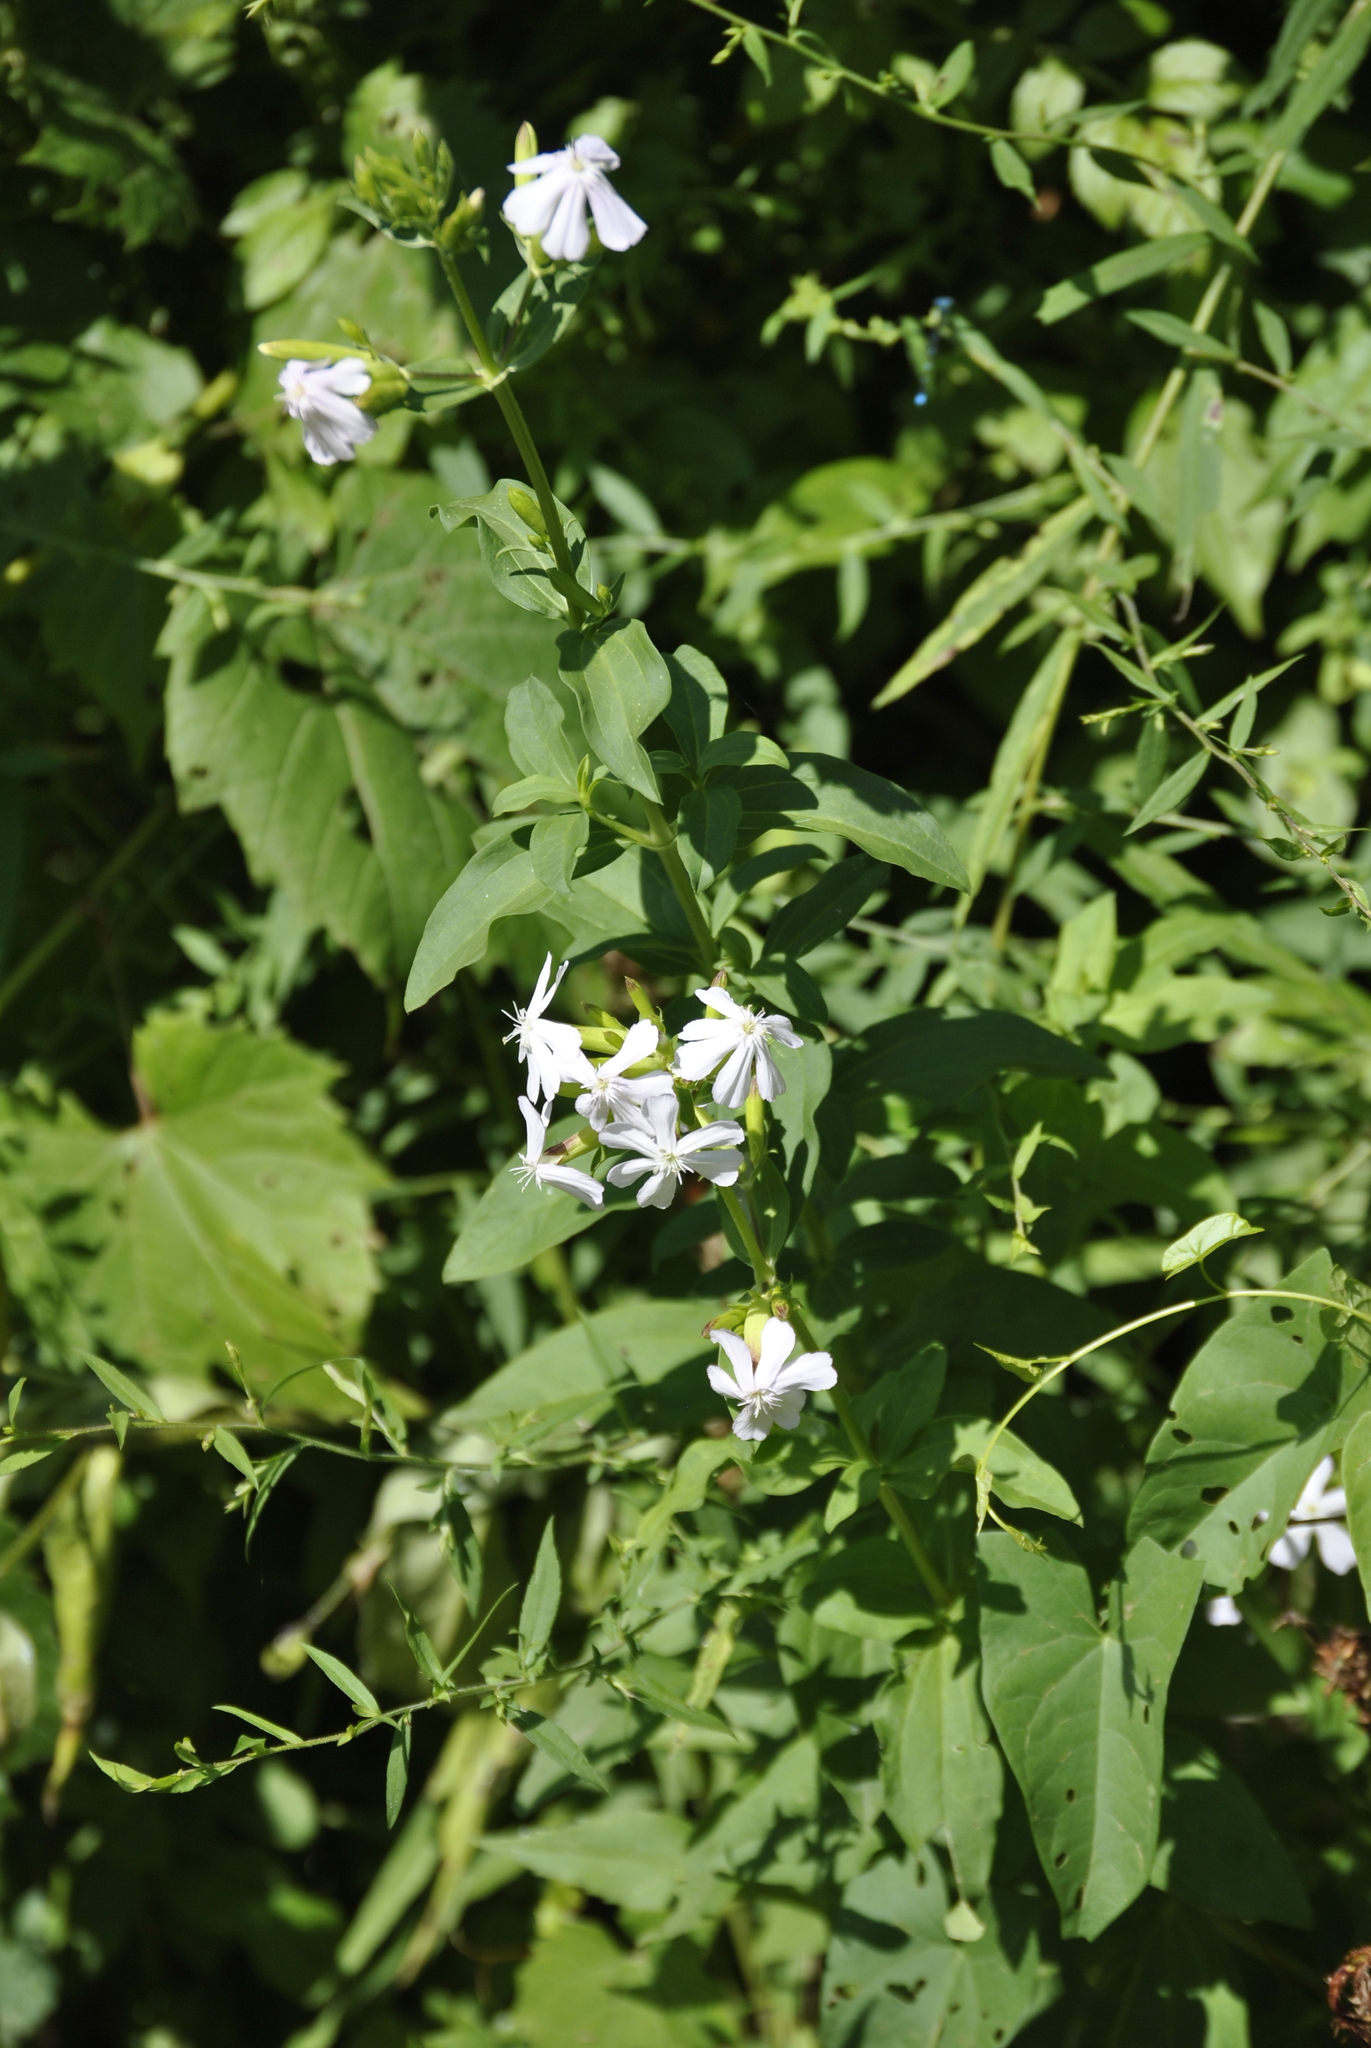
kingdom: Plantae
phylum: Tracheophyta
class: Magnoliopsida
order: Caryophyllales
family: Caryophyllaceae
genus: Saponaria
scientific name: Saponaria officinalis
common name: Soapwort
